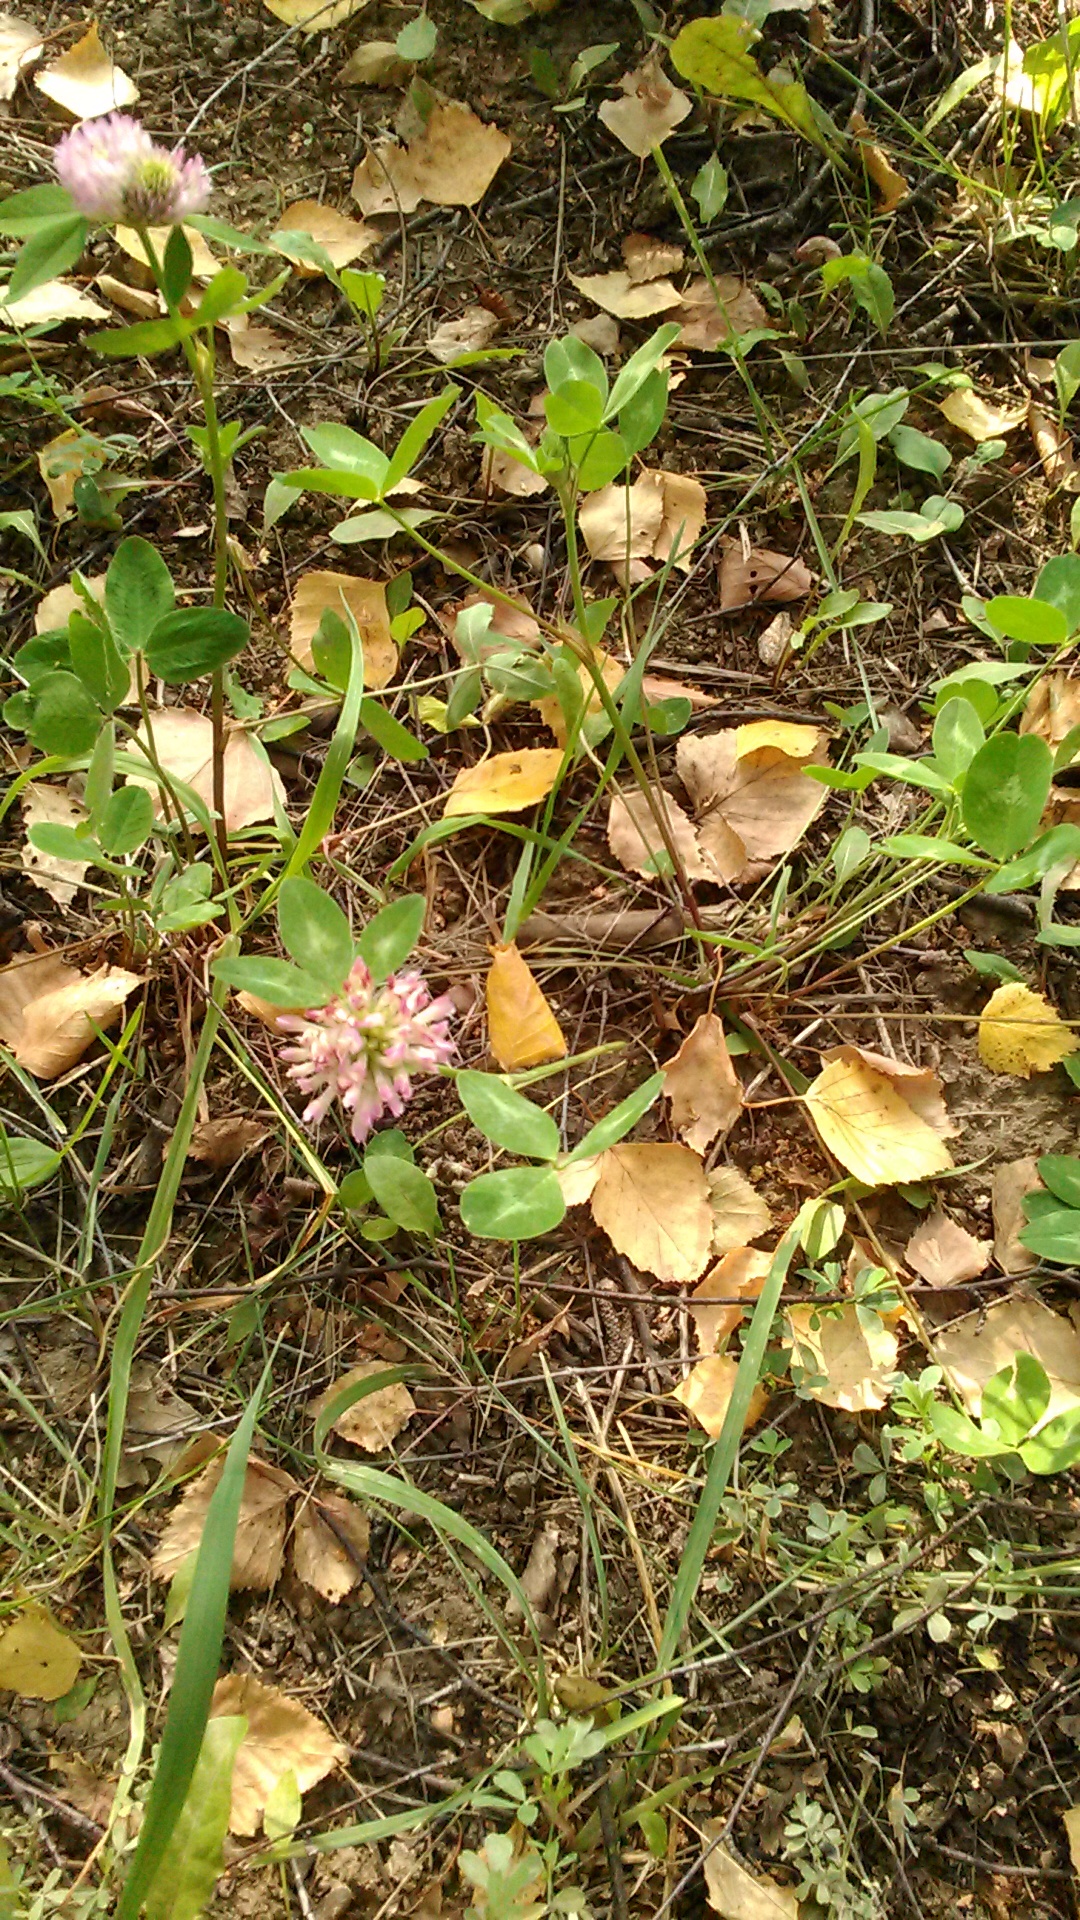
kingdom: Plantae
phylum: Tracheophyta
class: Magnoliopsida
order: Fabales
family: Fabaceae
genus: Trifolium
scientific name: Trifolium pratense
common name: Red clover
